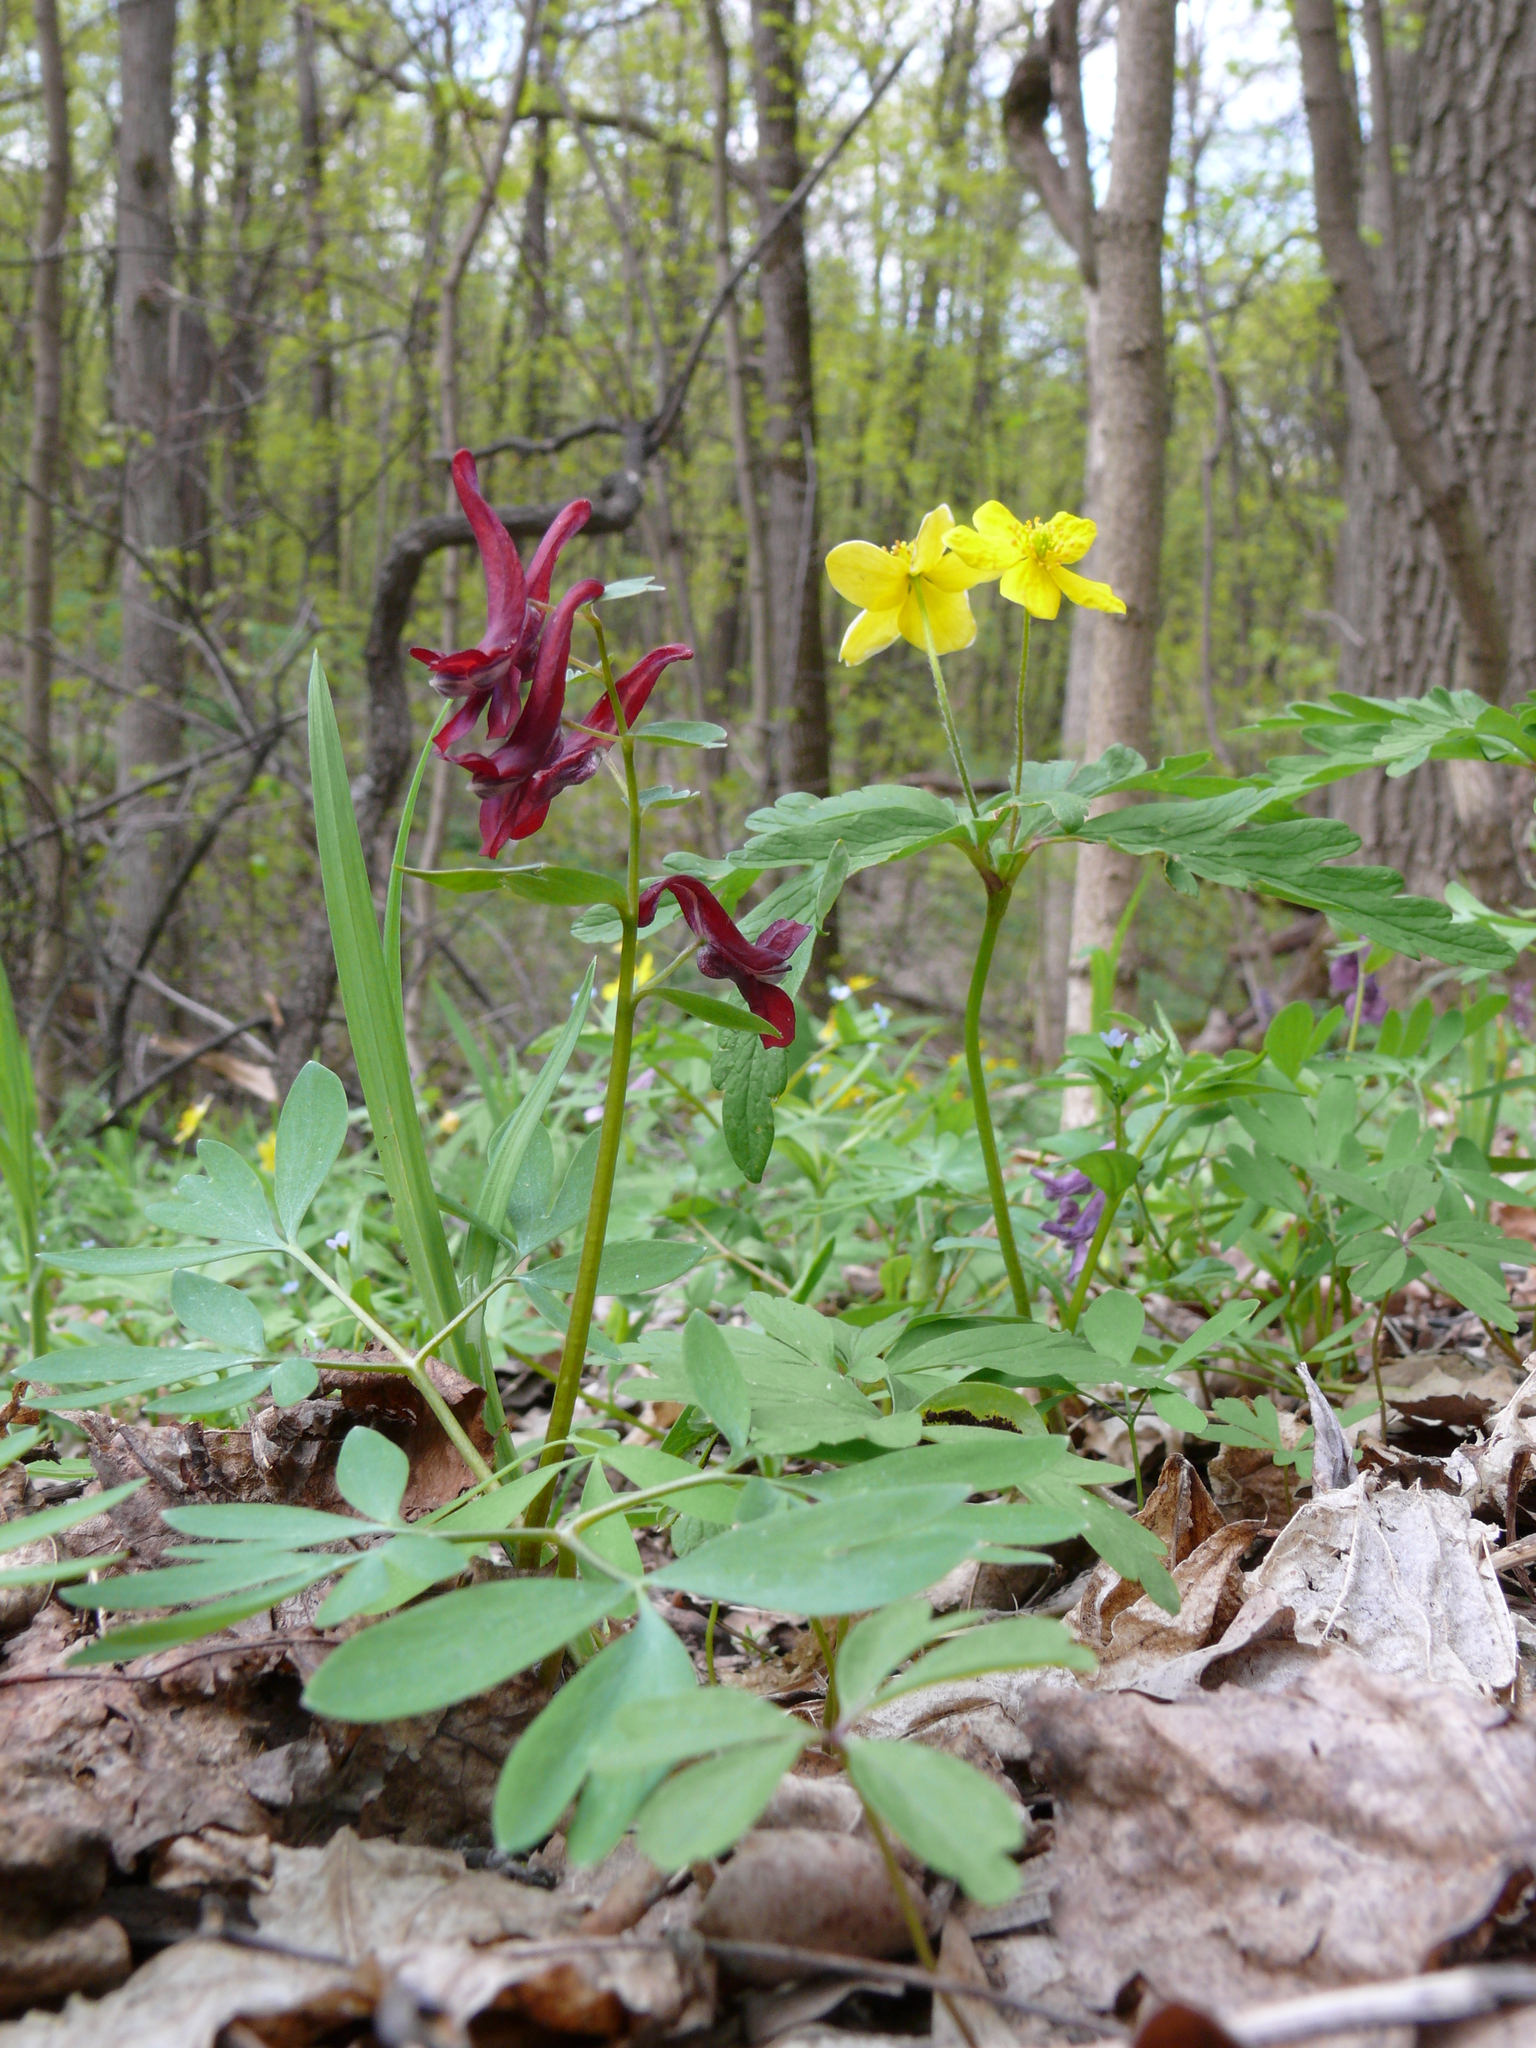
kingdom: Plantae
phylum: Tracheophyta
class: Magnoliopsida
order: Ranunculales
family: Papaveraceae
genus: Corydalis
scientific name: Corydalis solida
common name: Bird-in-a-bush
